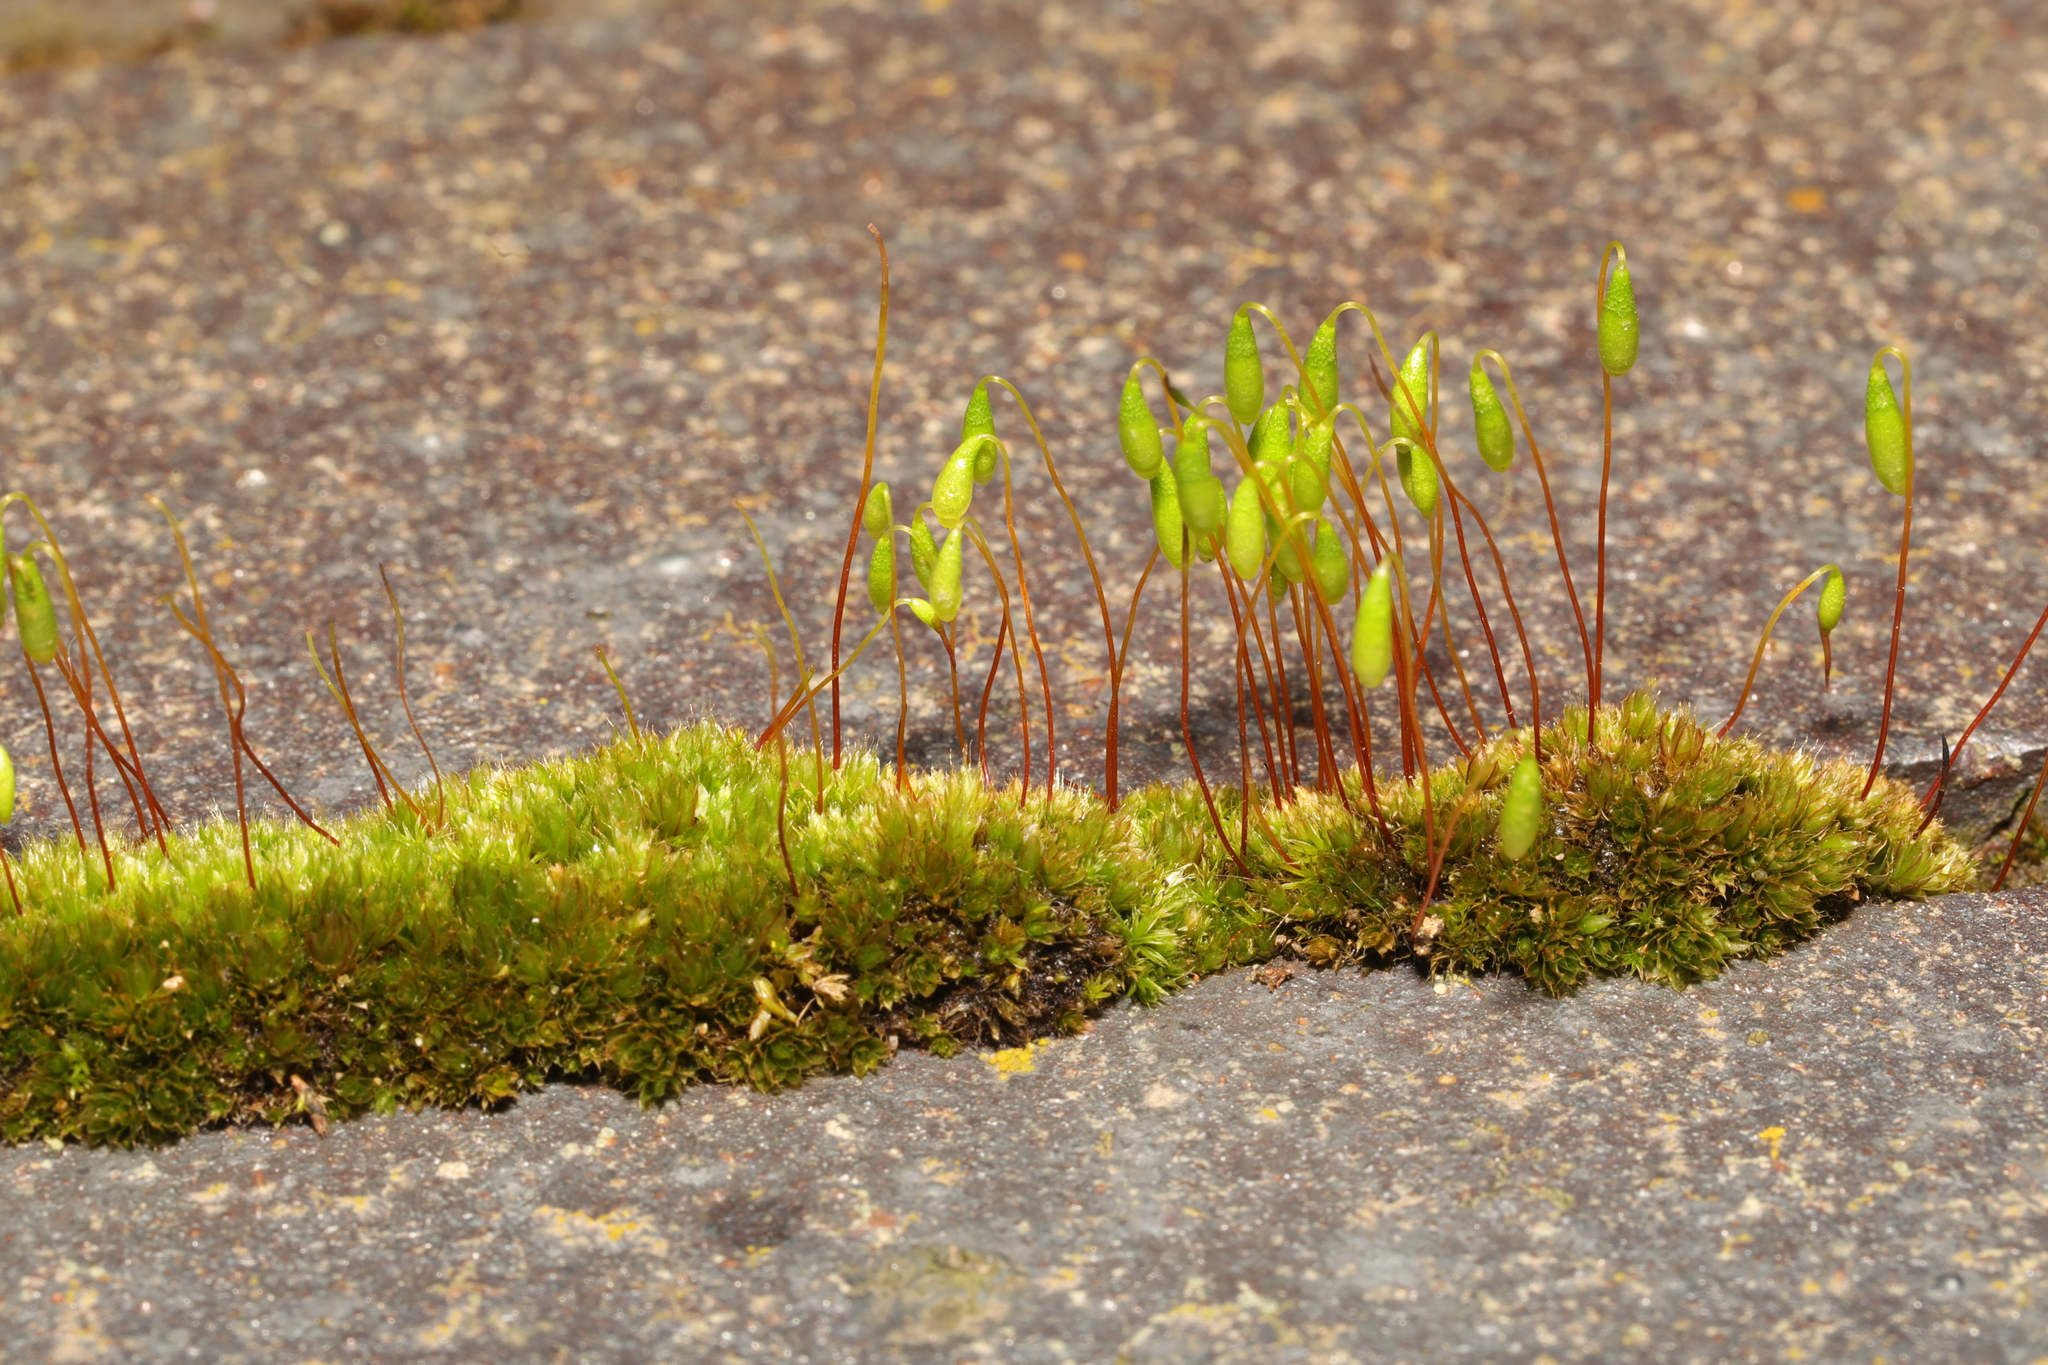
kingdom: Plantae
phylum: Bryophyta
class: Bryopsida
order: Bryales
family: Bryaceae
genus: Rosulabryum
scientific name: Rosulabryum capillare
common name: Capillary thread-moss
